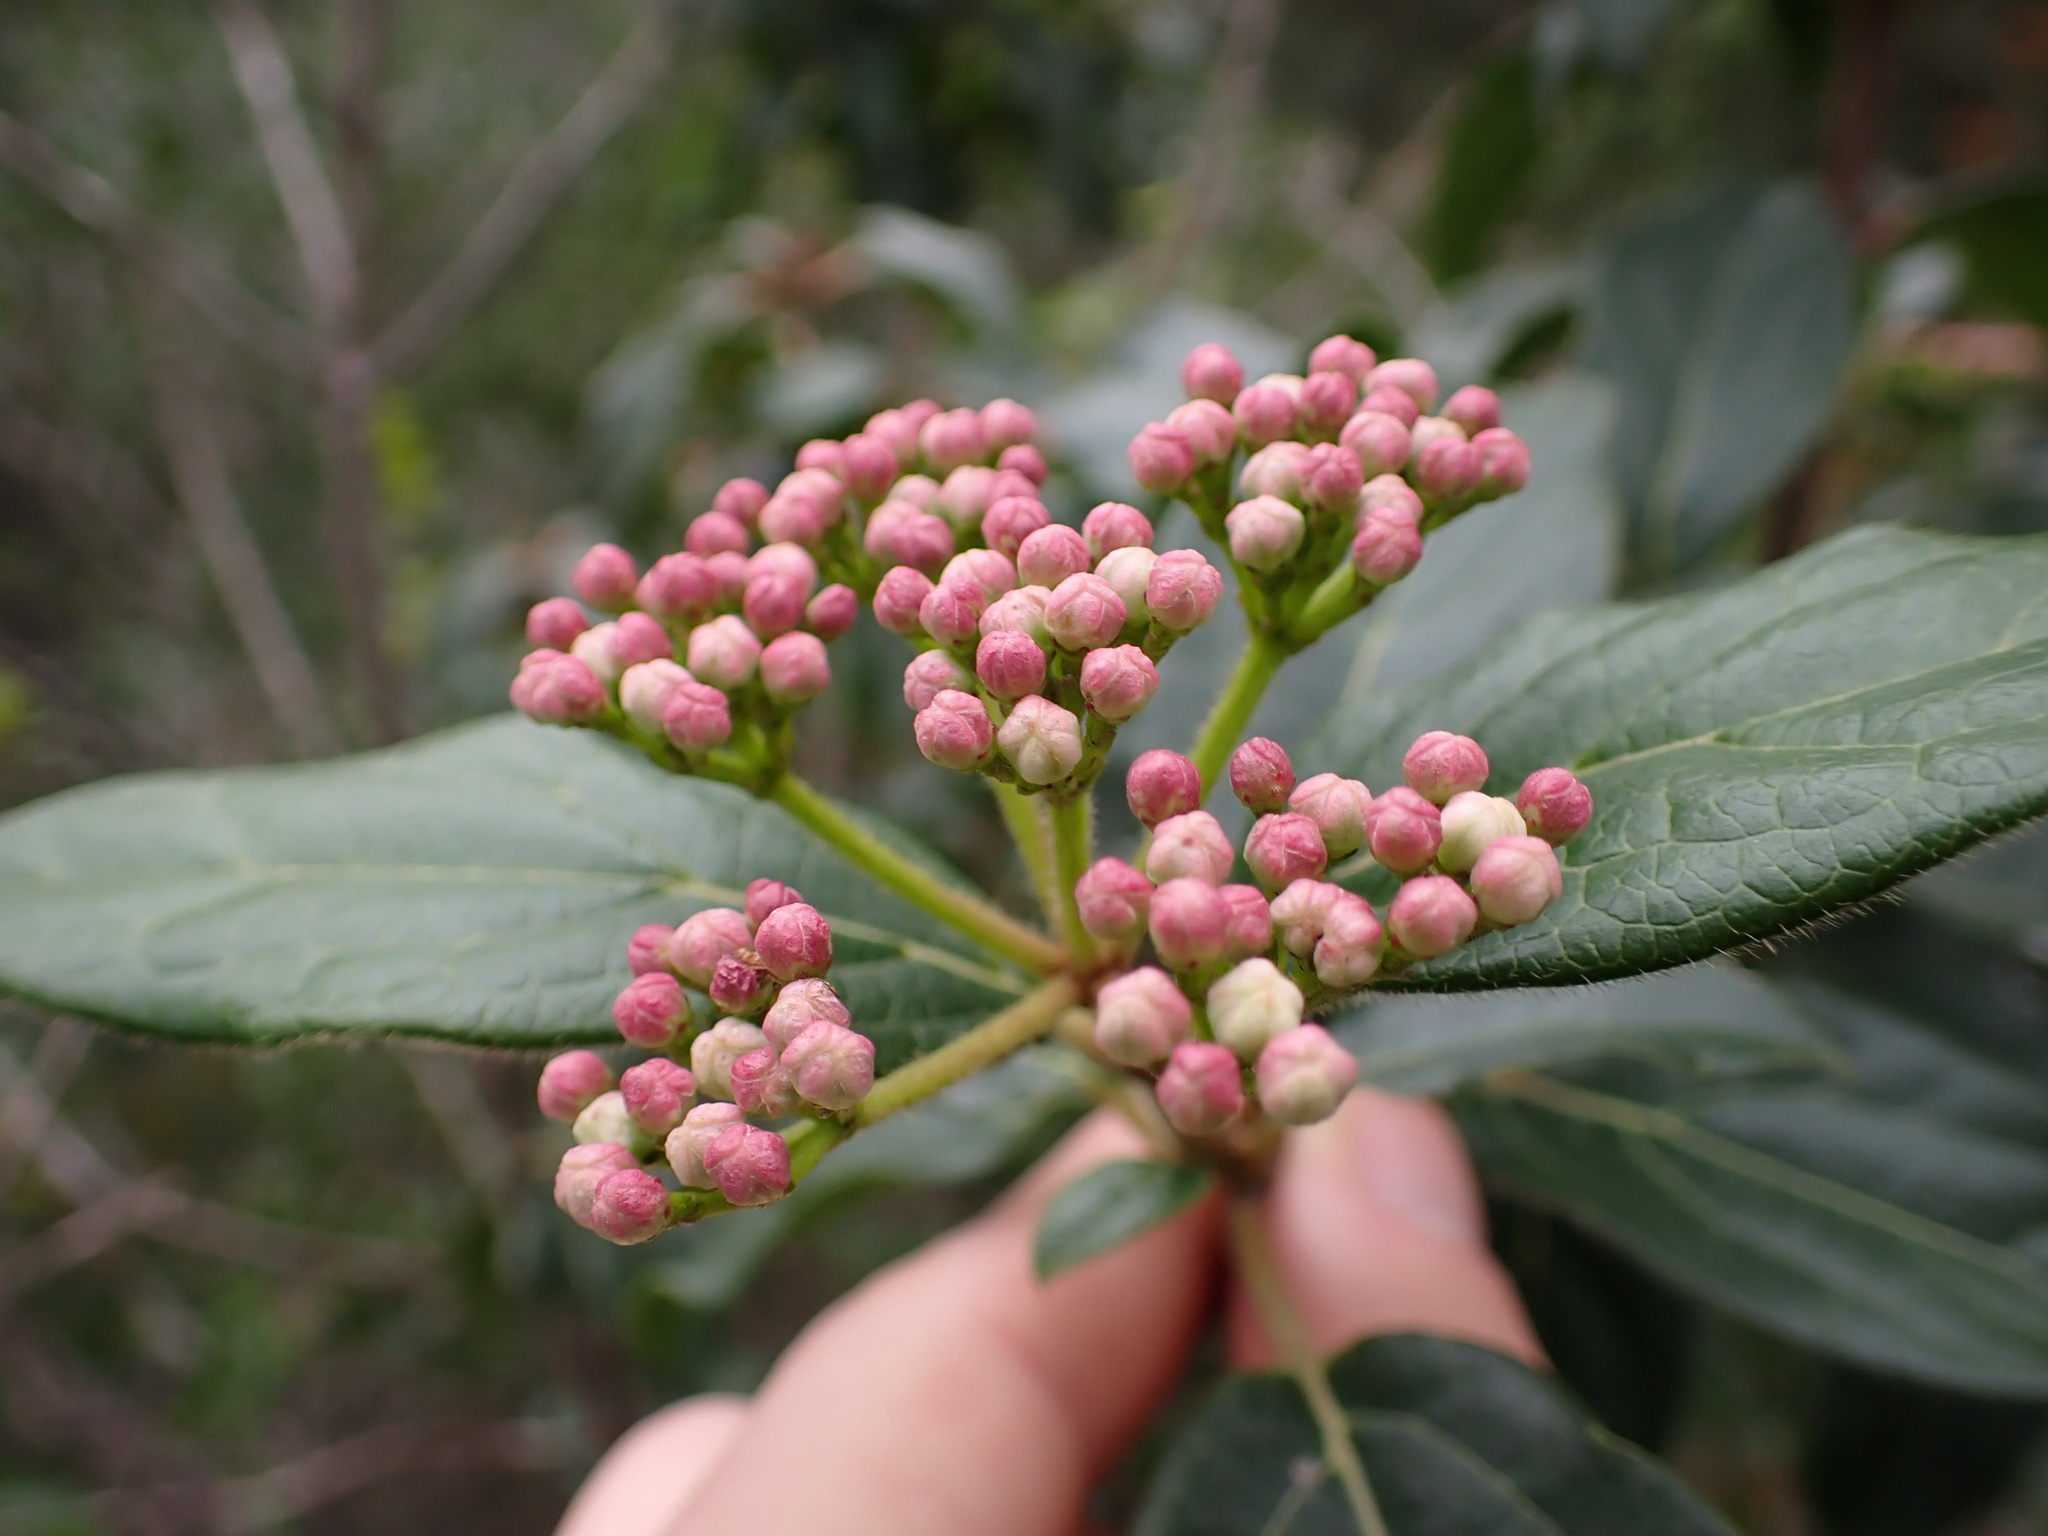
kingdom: Plantae
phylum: Tracheophyta
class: Magnoliopsida
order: Dipsacales
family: Viburnaceae
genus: Viburnum
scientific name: Viburnum tinus
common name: Laurustinus
